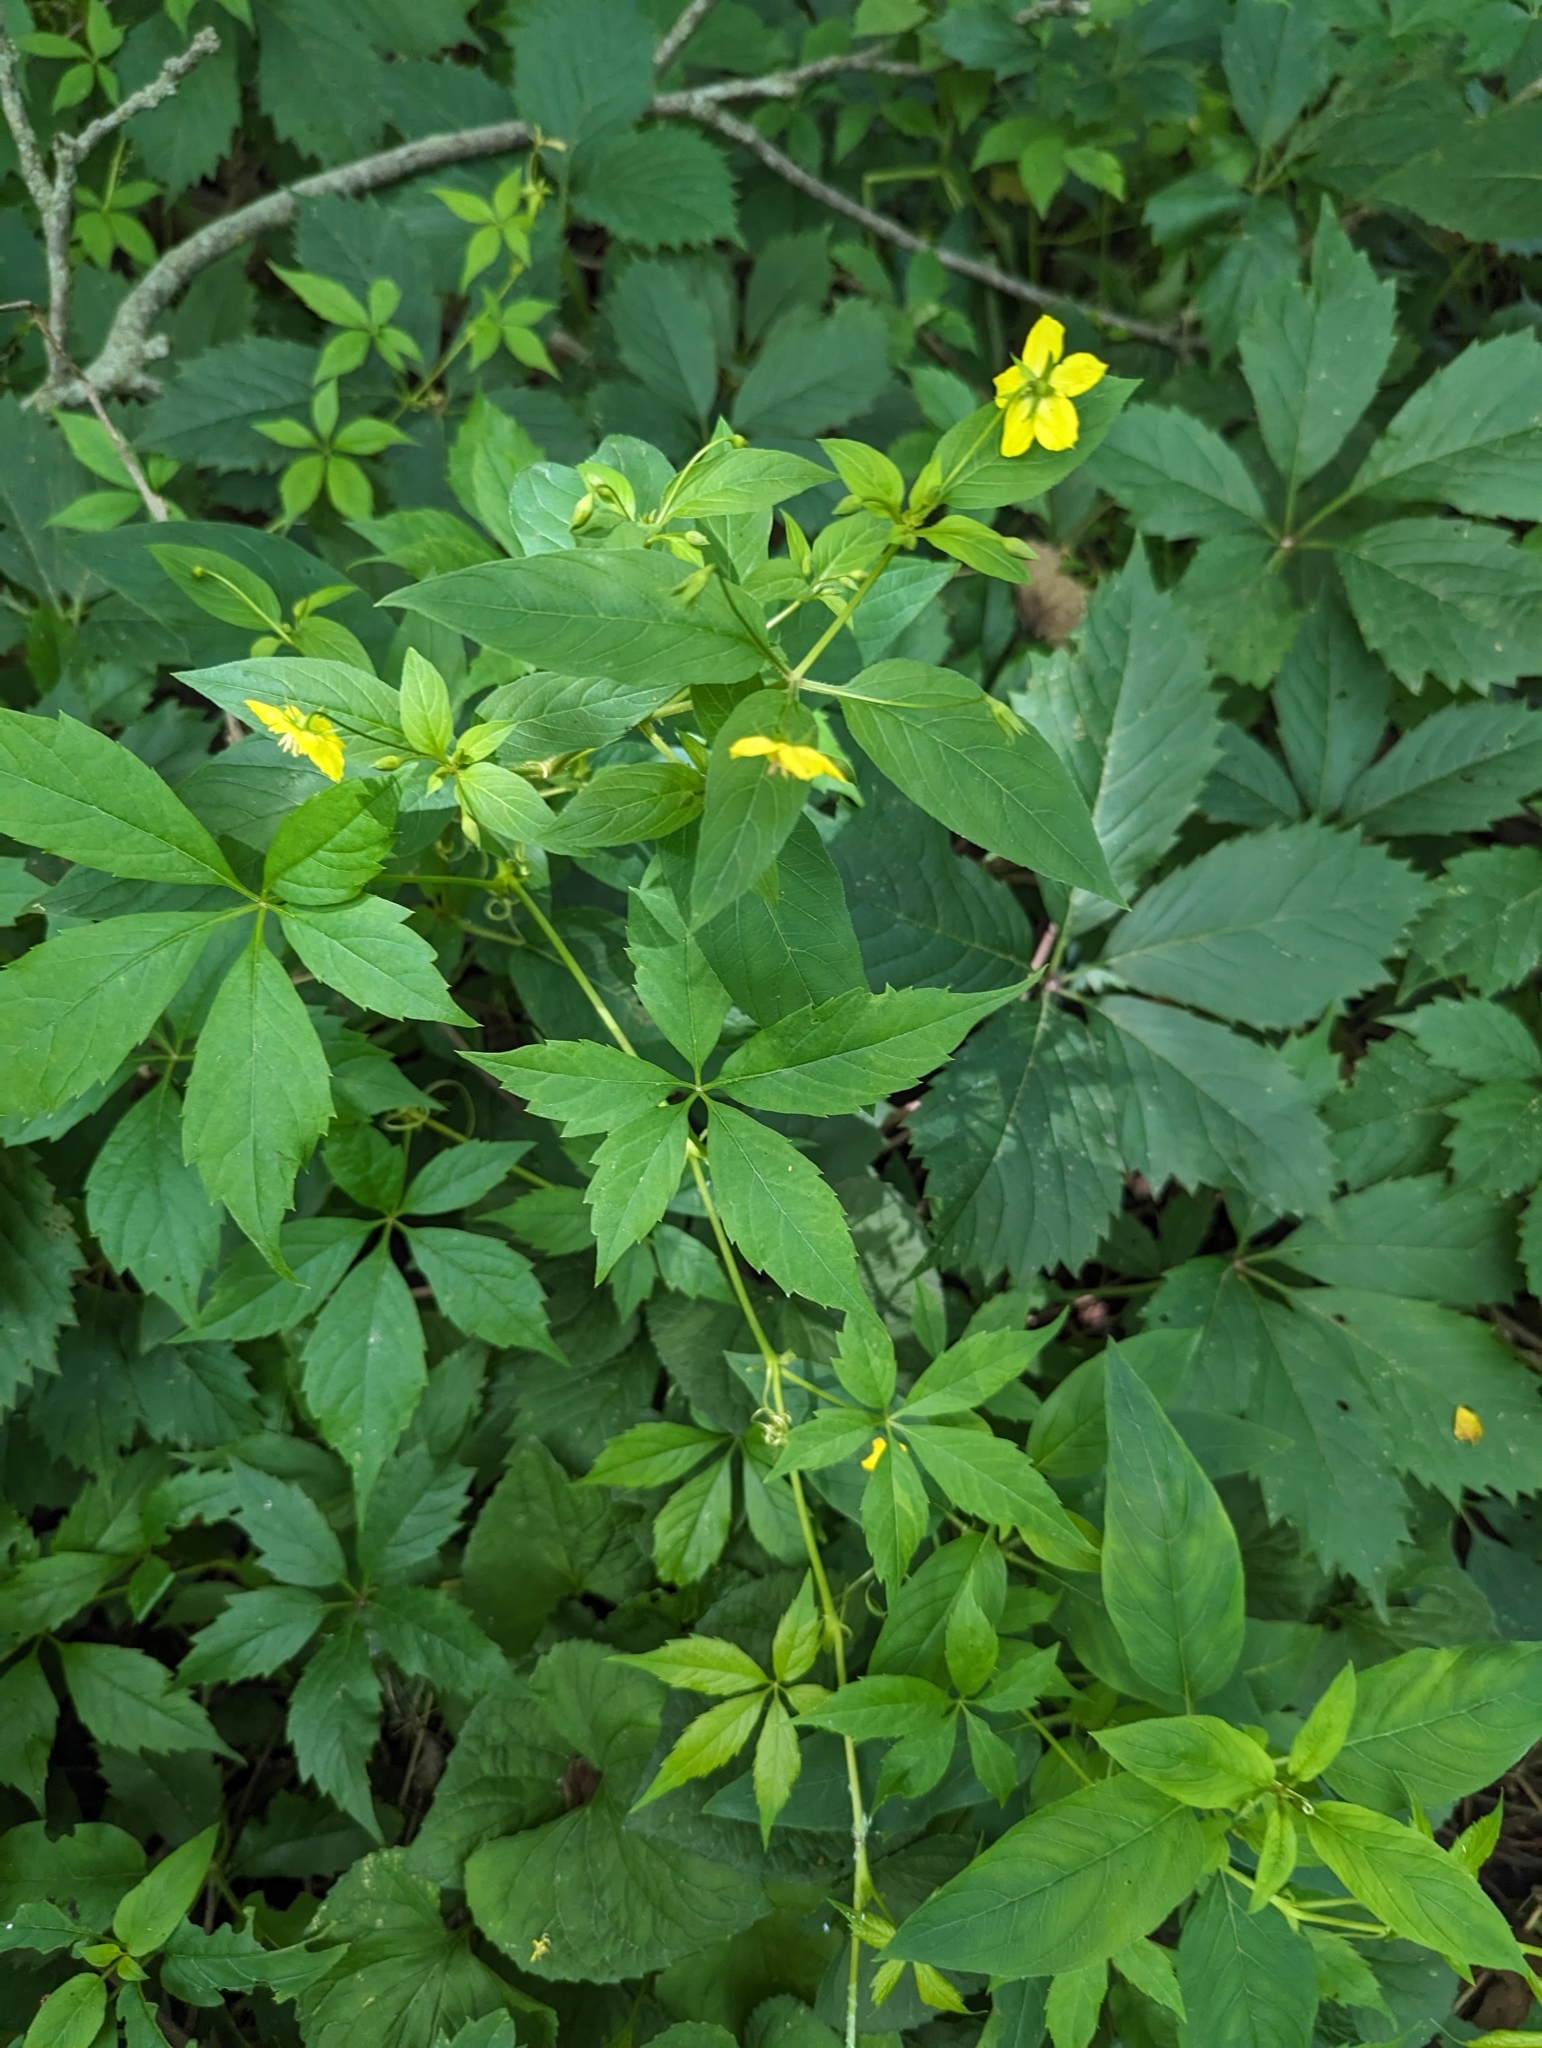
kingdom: Plantae
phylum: Tracheophyta
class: Magnoliopsida
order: Vitales
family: Vitaceae
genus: Parthenocissus
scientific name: Parthenocissus quinquefolia
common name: Virginia-creeper
